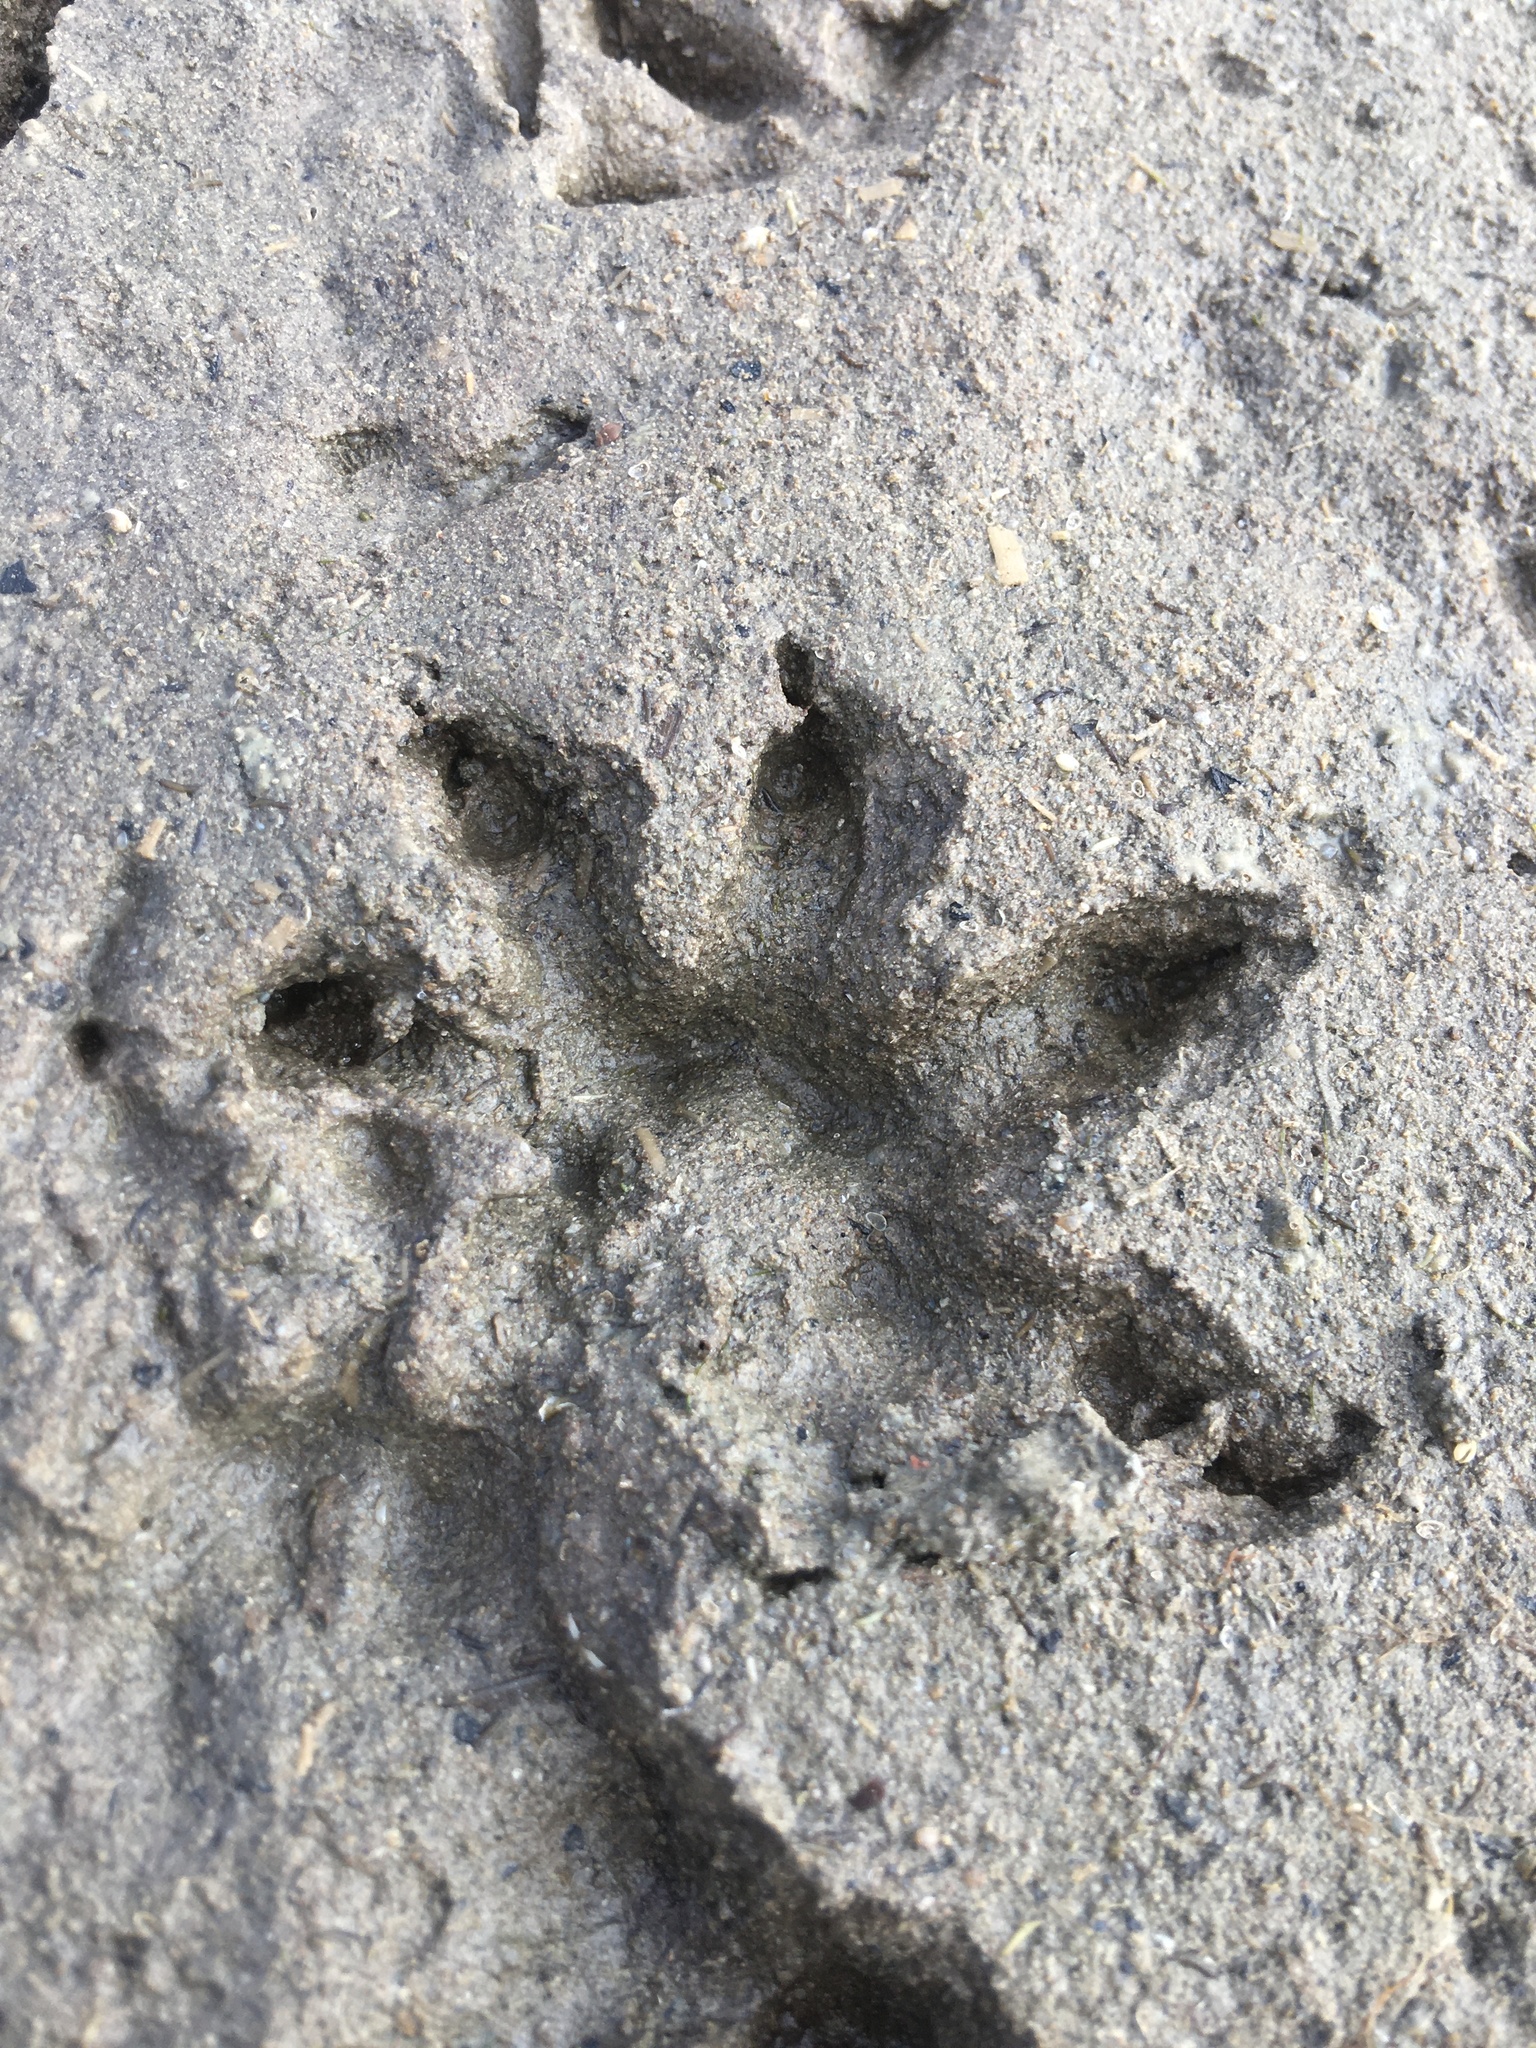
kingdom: Animalia
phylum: Chordata
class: Mammalia
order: Didelphimorphia
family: Didelphidae
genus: Didelphis
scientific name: Didelphis virginiana
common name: Virginia opossum
